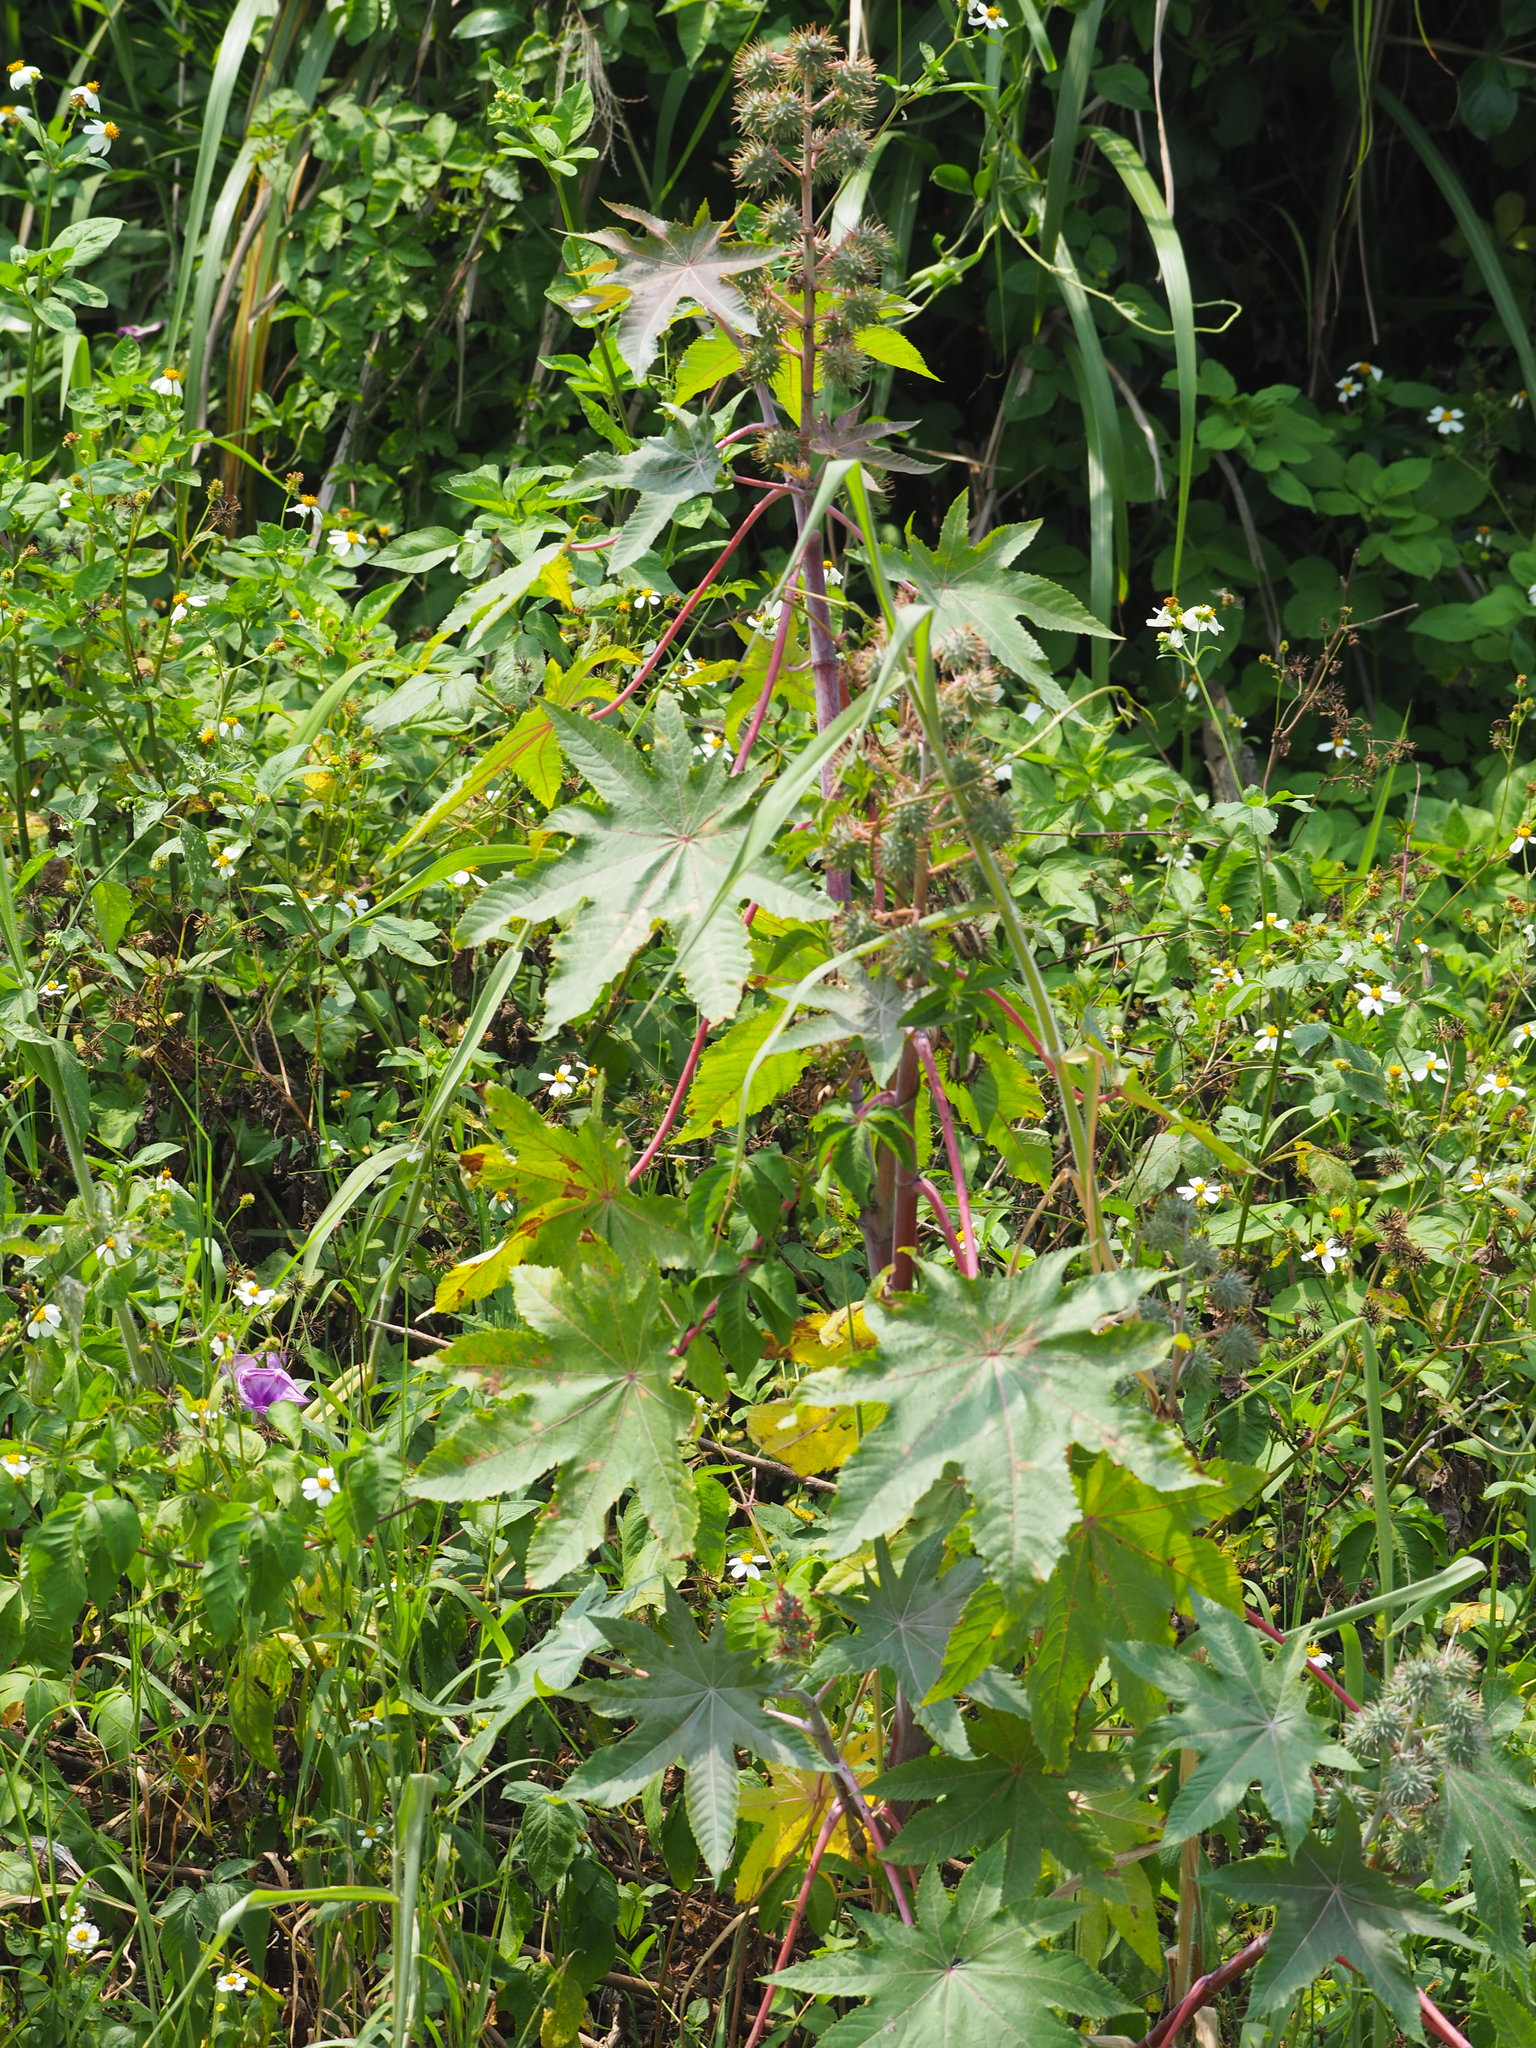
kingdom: Plantae
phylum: Tracheophyta
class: Magnoliopsida
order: Malpighiales
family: Euphorbiaceae
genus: Ricinus
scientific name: Ricinus communis
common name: Castor-oil-plant
